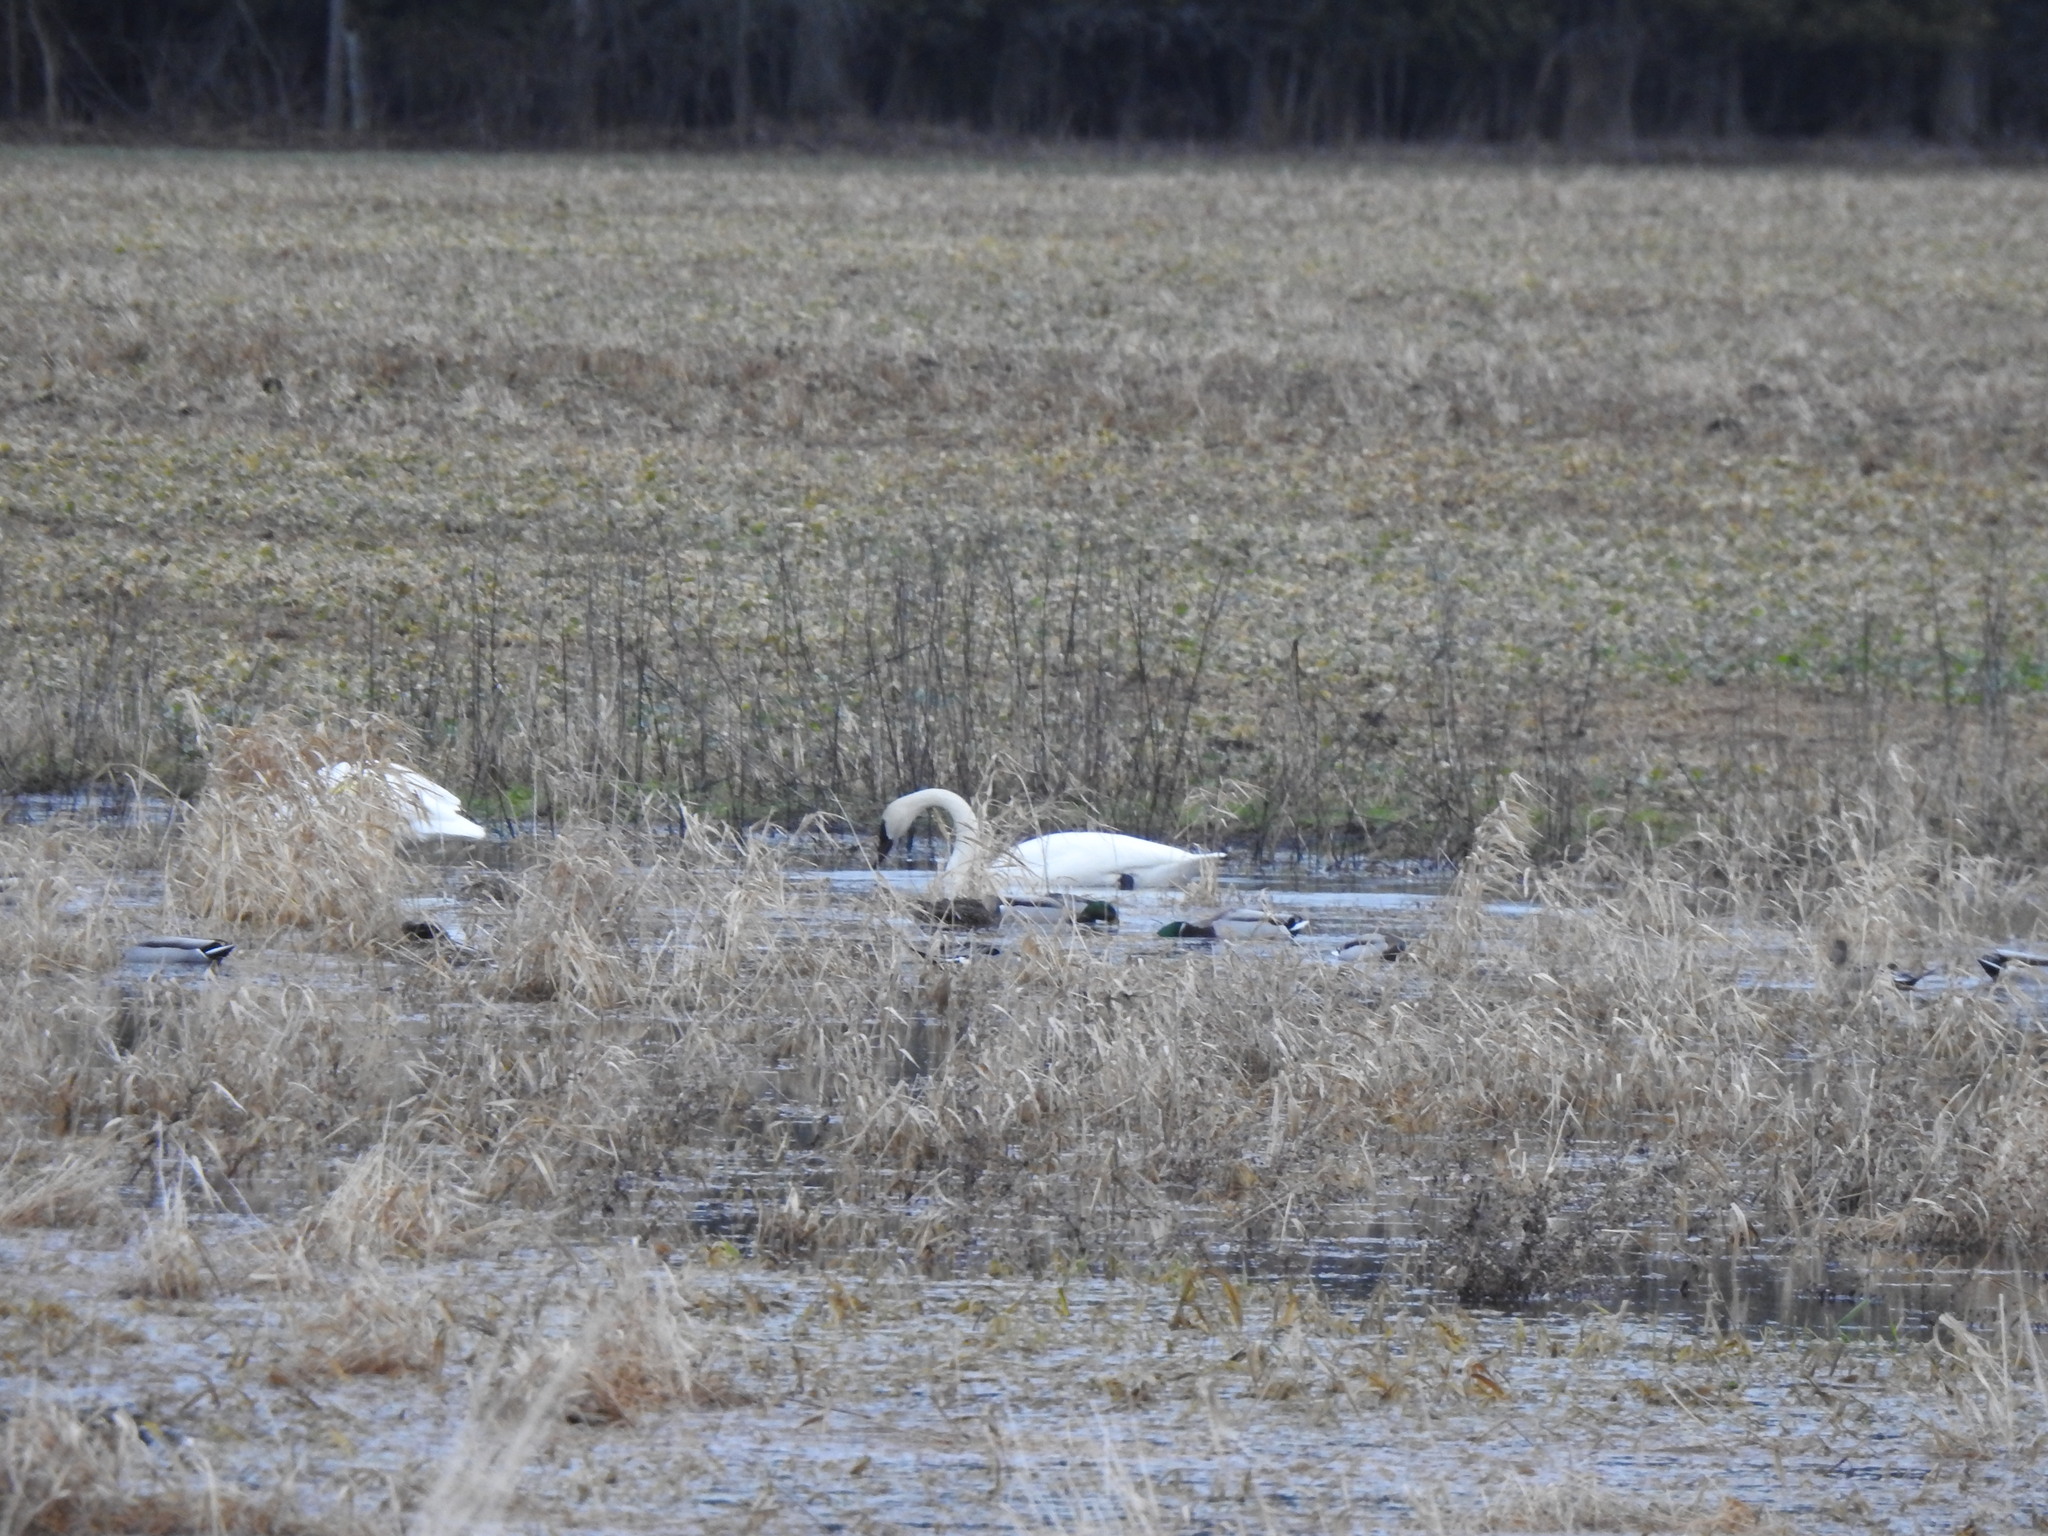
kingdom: Animalia
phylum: Chordata
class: Aves
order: Anseriformes
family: Anatidae
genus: Cygnus
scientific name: Cygnus buccinator
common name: Trumpeter swan
